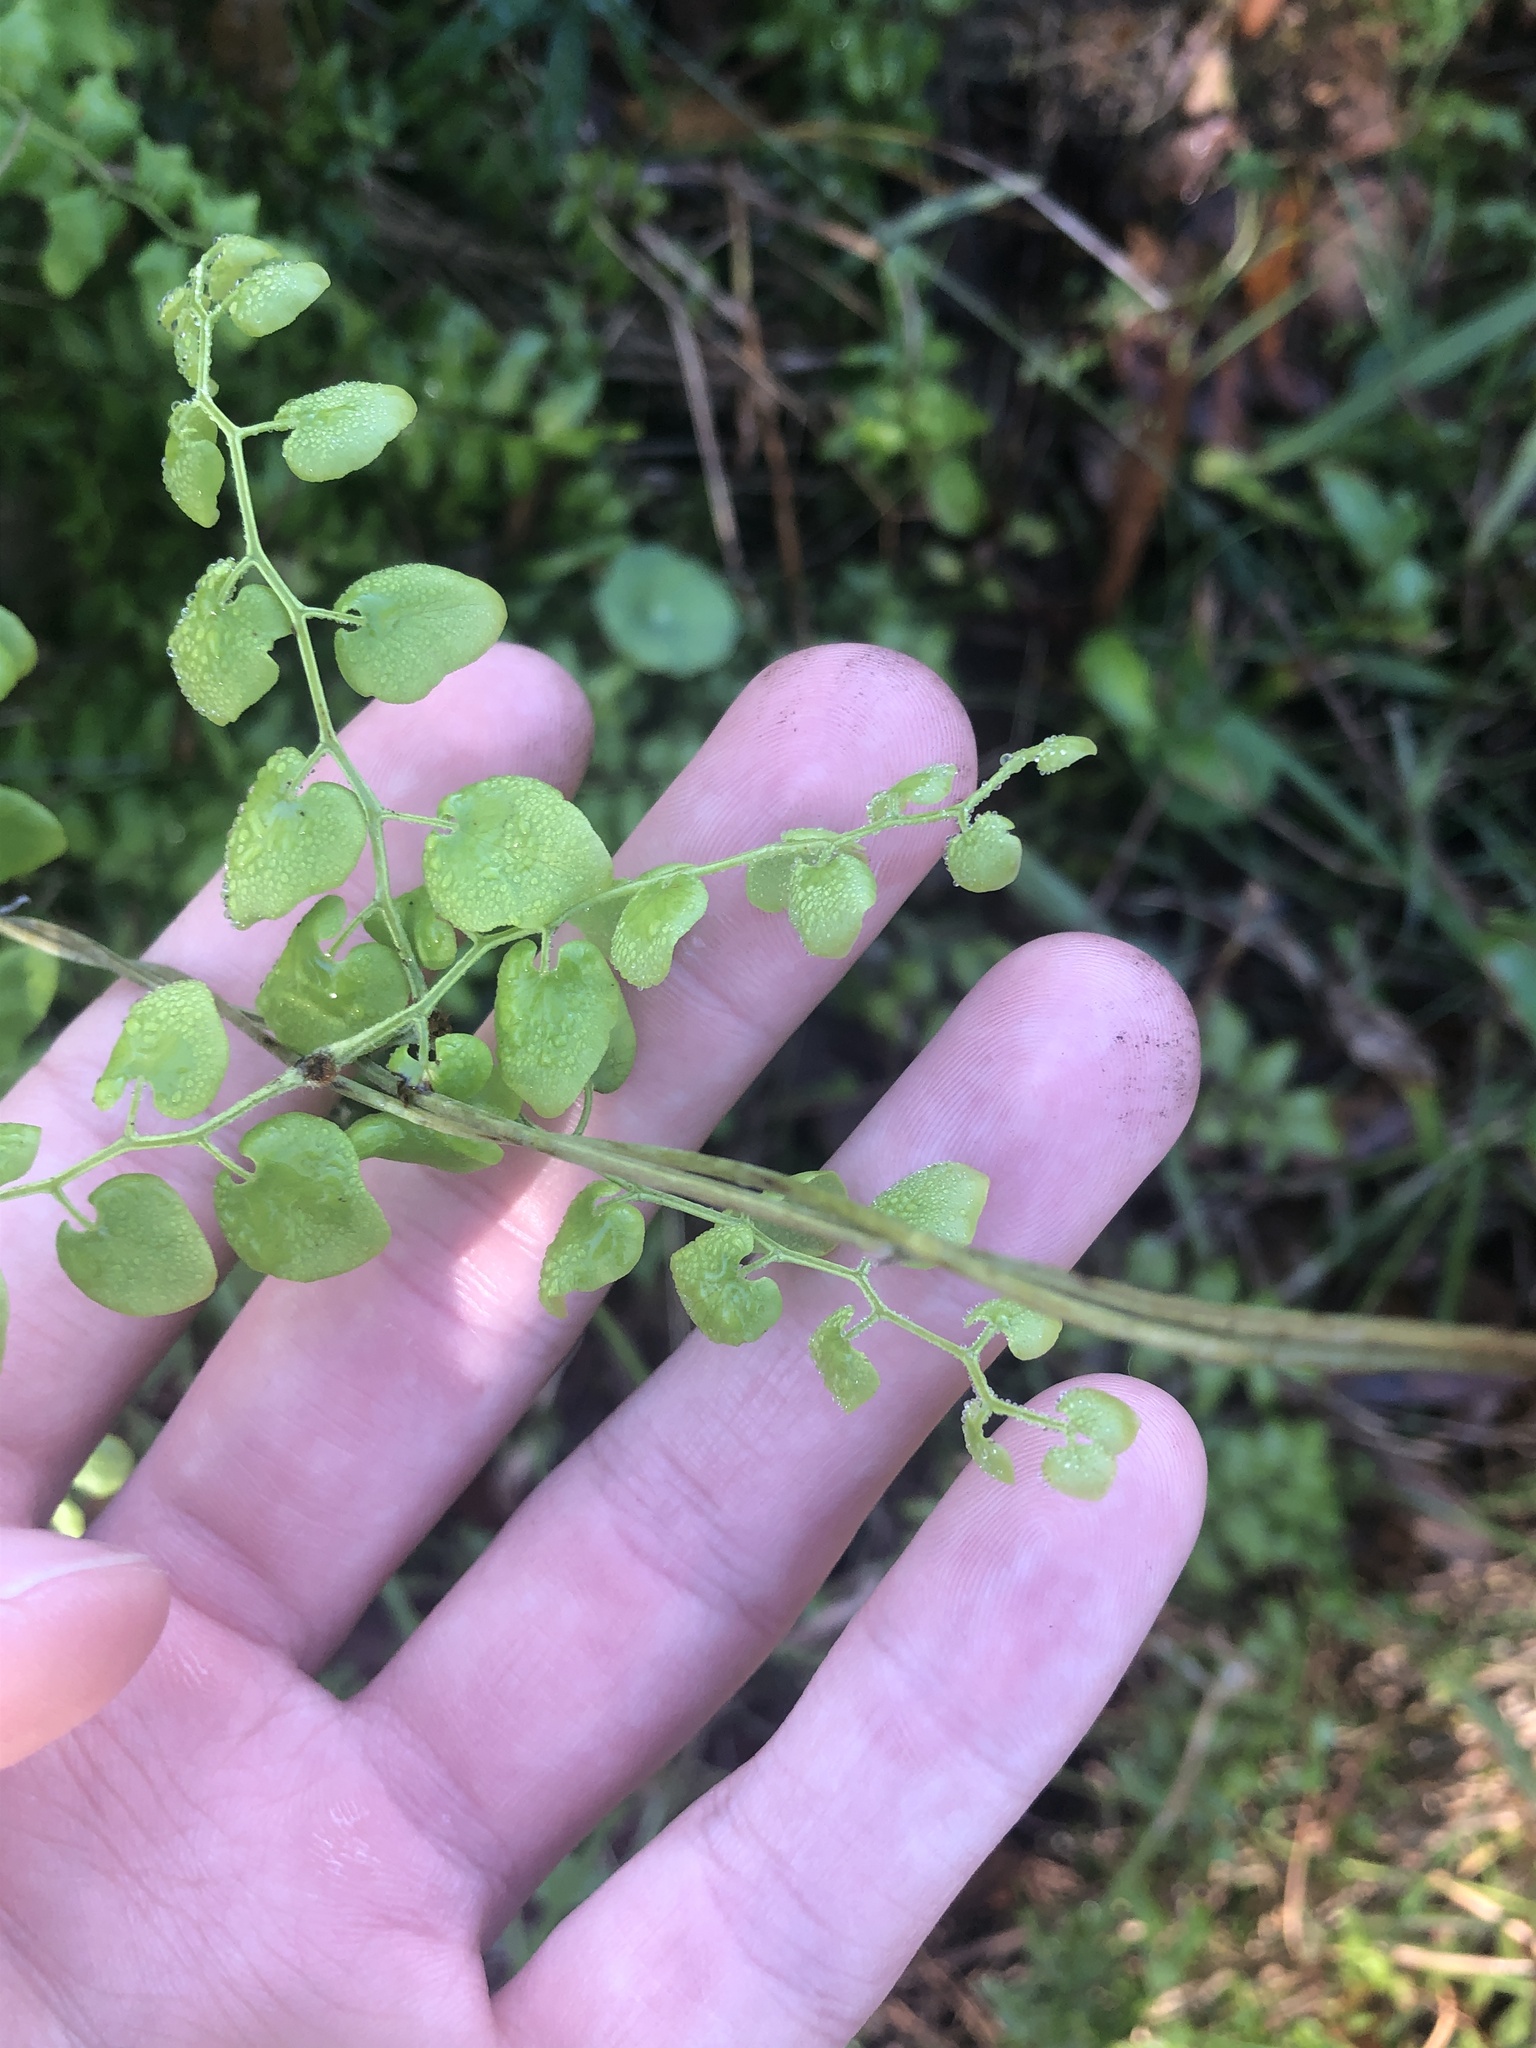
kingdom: Plantae
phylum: Tracheophyta
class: Polypodiopsida
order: Schizaeales
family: Lygodiaceae
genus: Lygodium
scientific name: Lygodium microphyllum
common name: Small-leaf climbing fern
